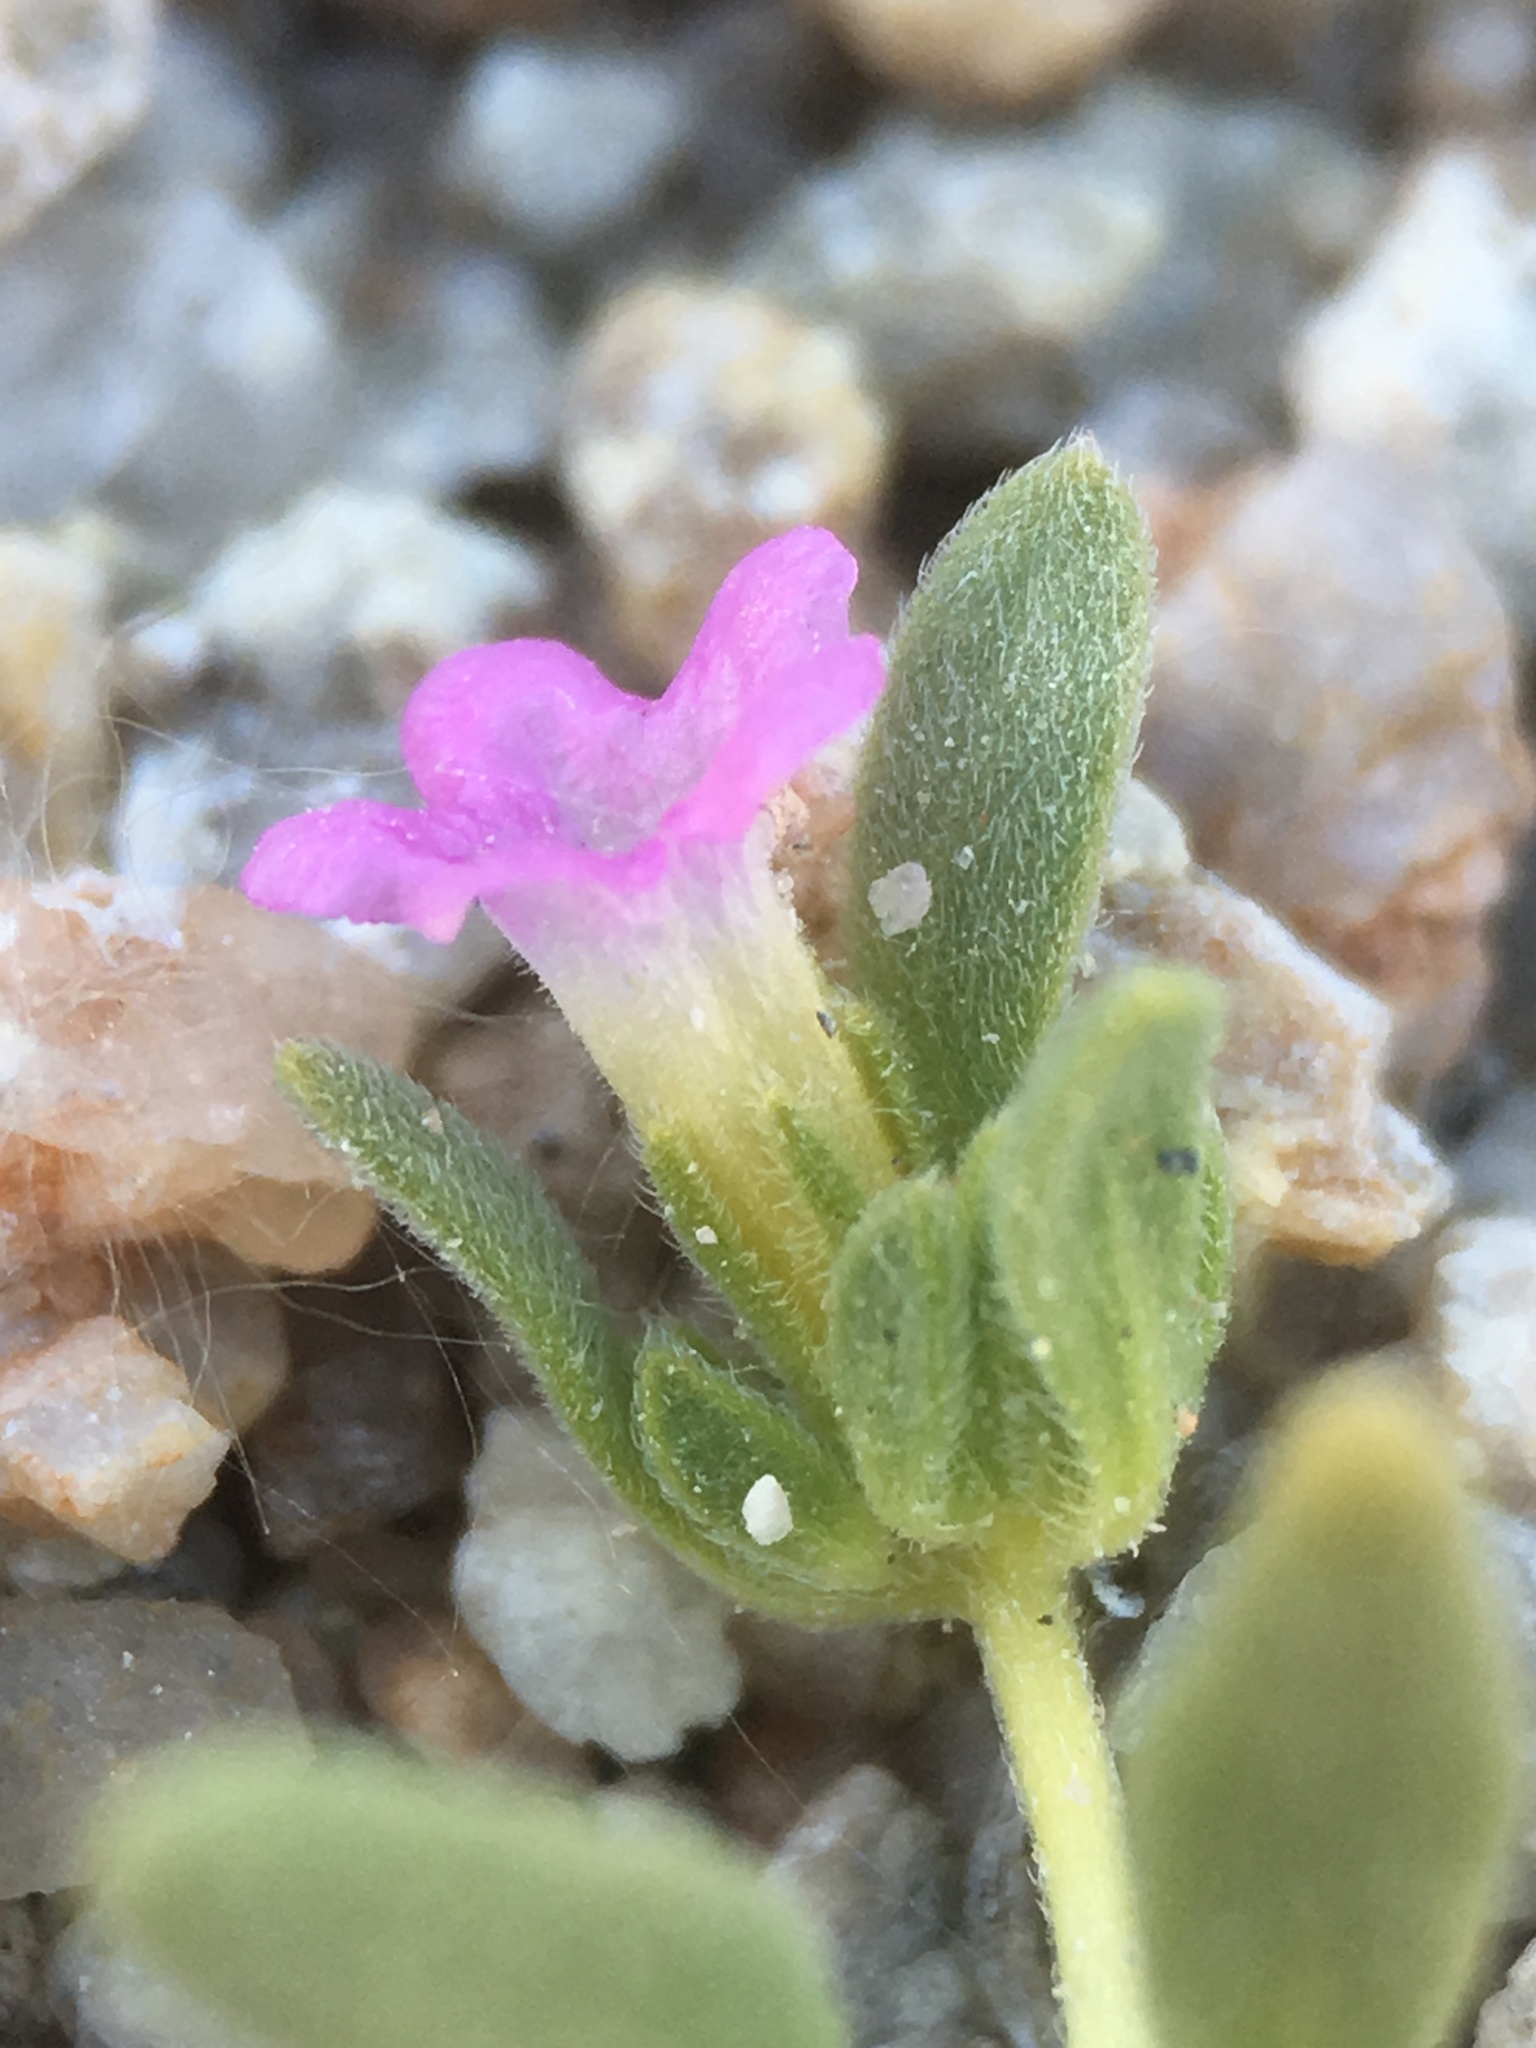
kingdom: Plantae
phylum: Tracheophyta
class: Magnoliopsida
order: Boraginales
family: Namaceae
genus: Nama
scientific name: Nama depressa
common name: Depressed fiddleleaf
